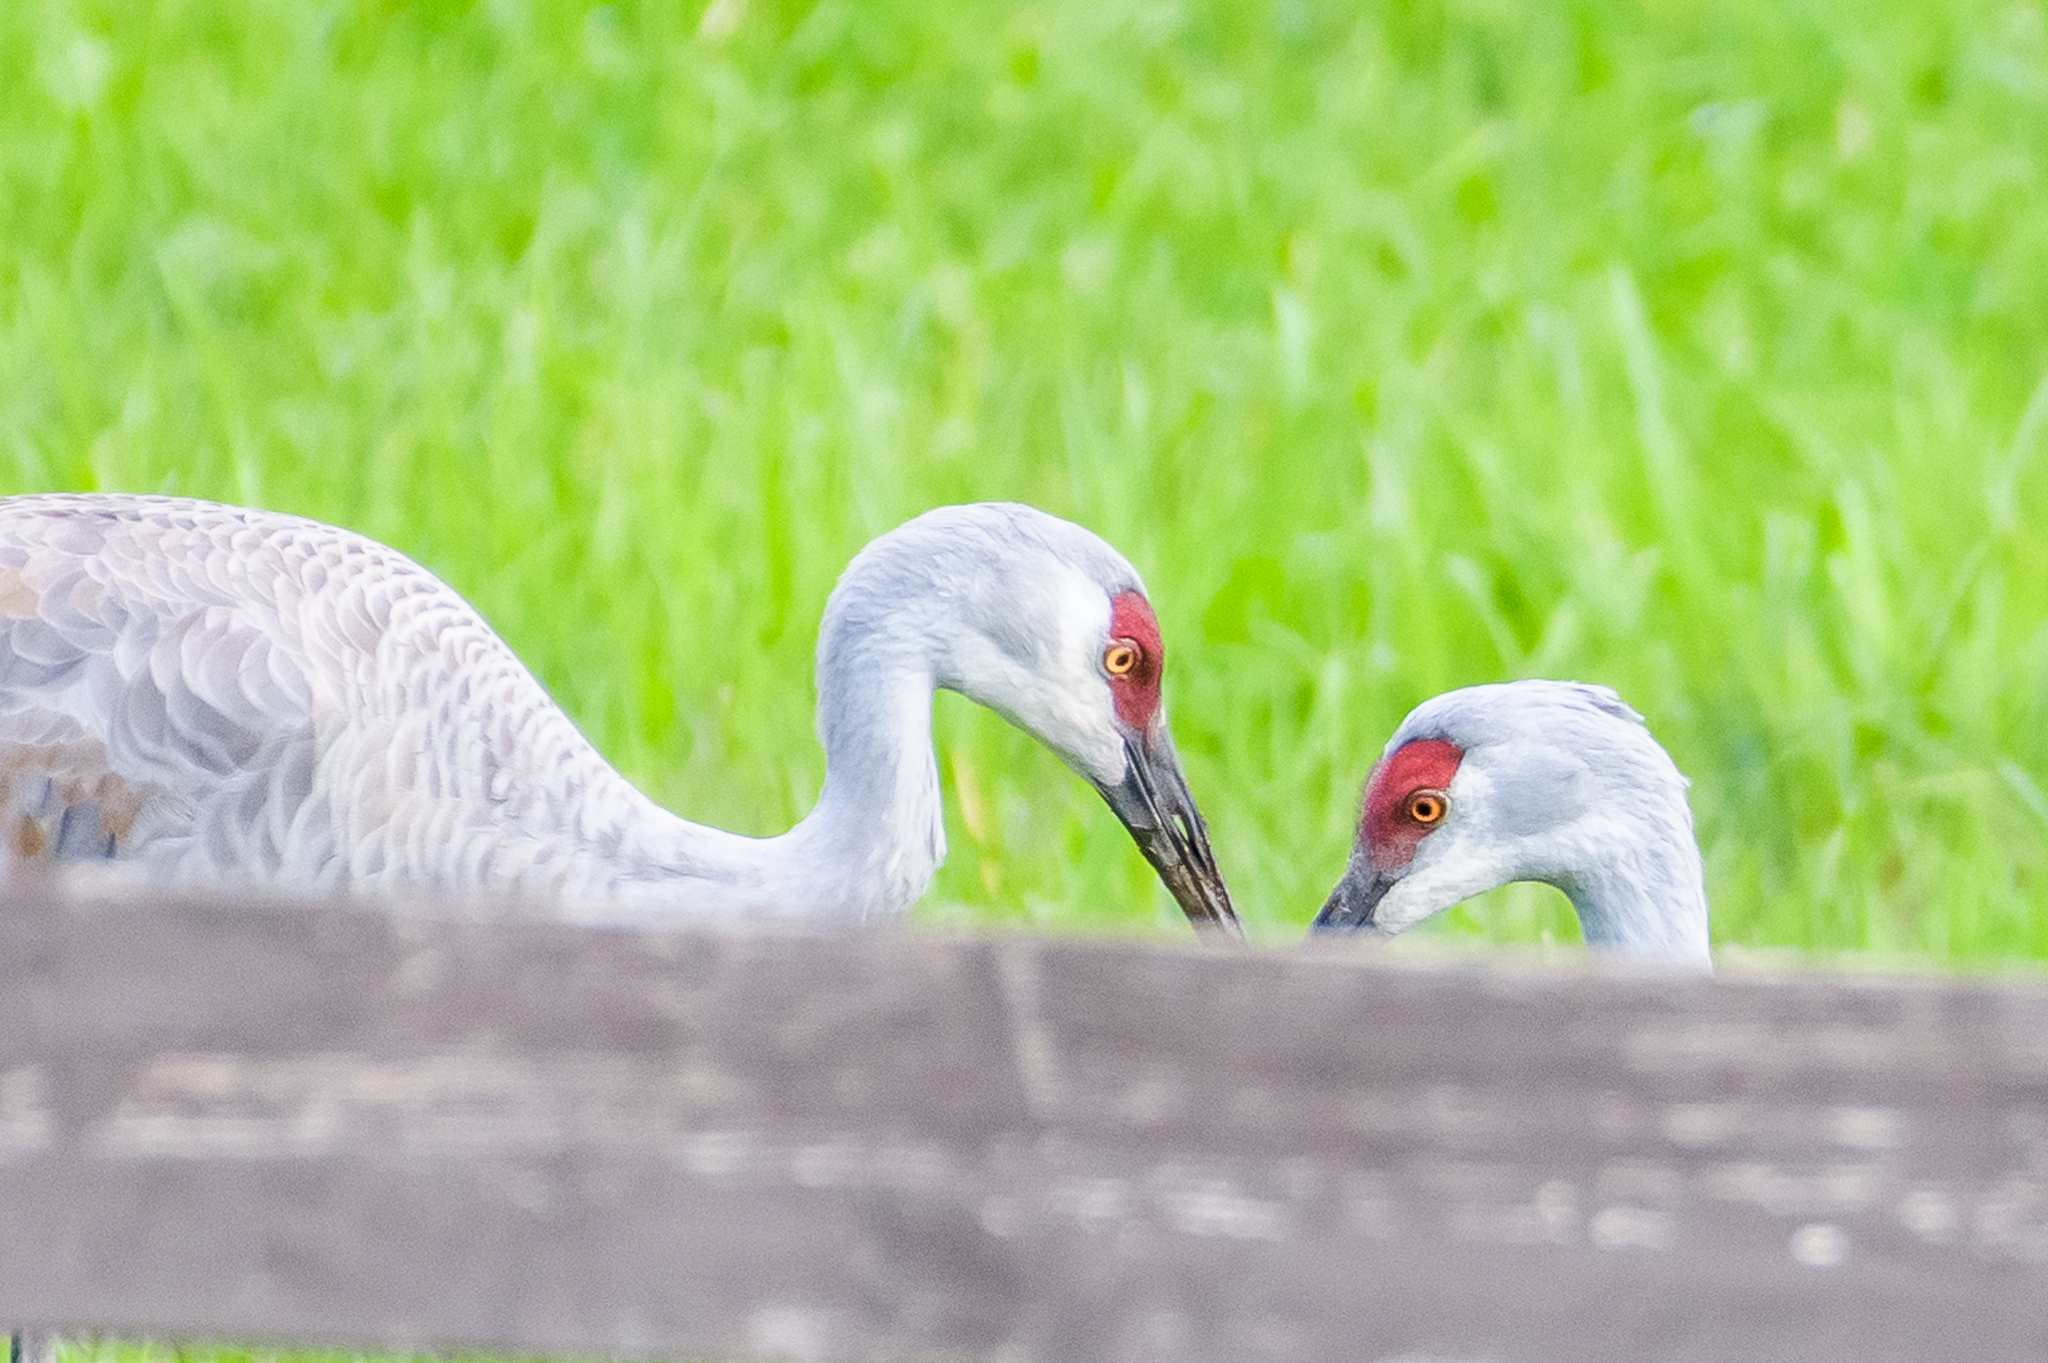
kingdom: Animalia
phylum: Chordata
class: Aves
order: Gruiformes
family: Gruidae
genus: Grus
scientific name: Grus canadensis
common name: Sandhill crane
